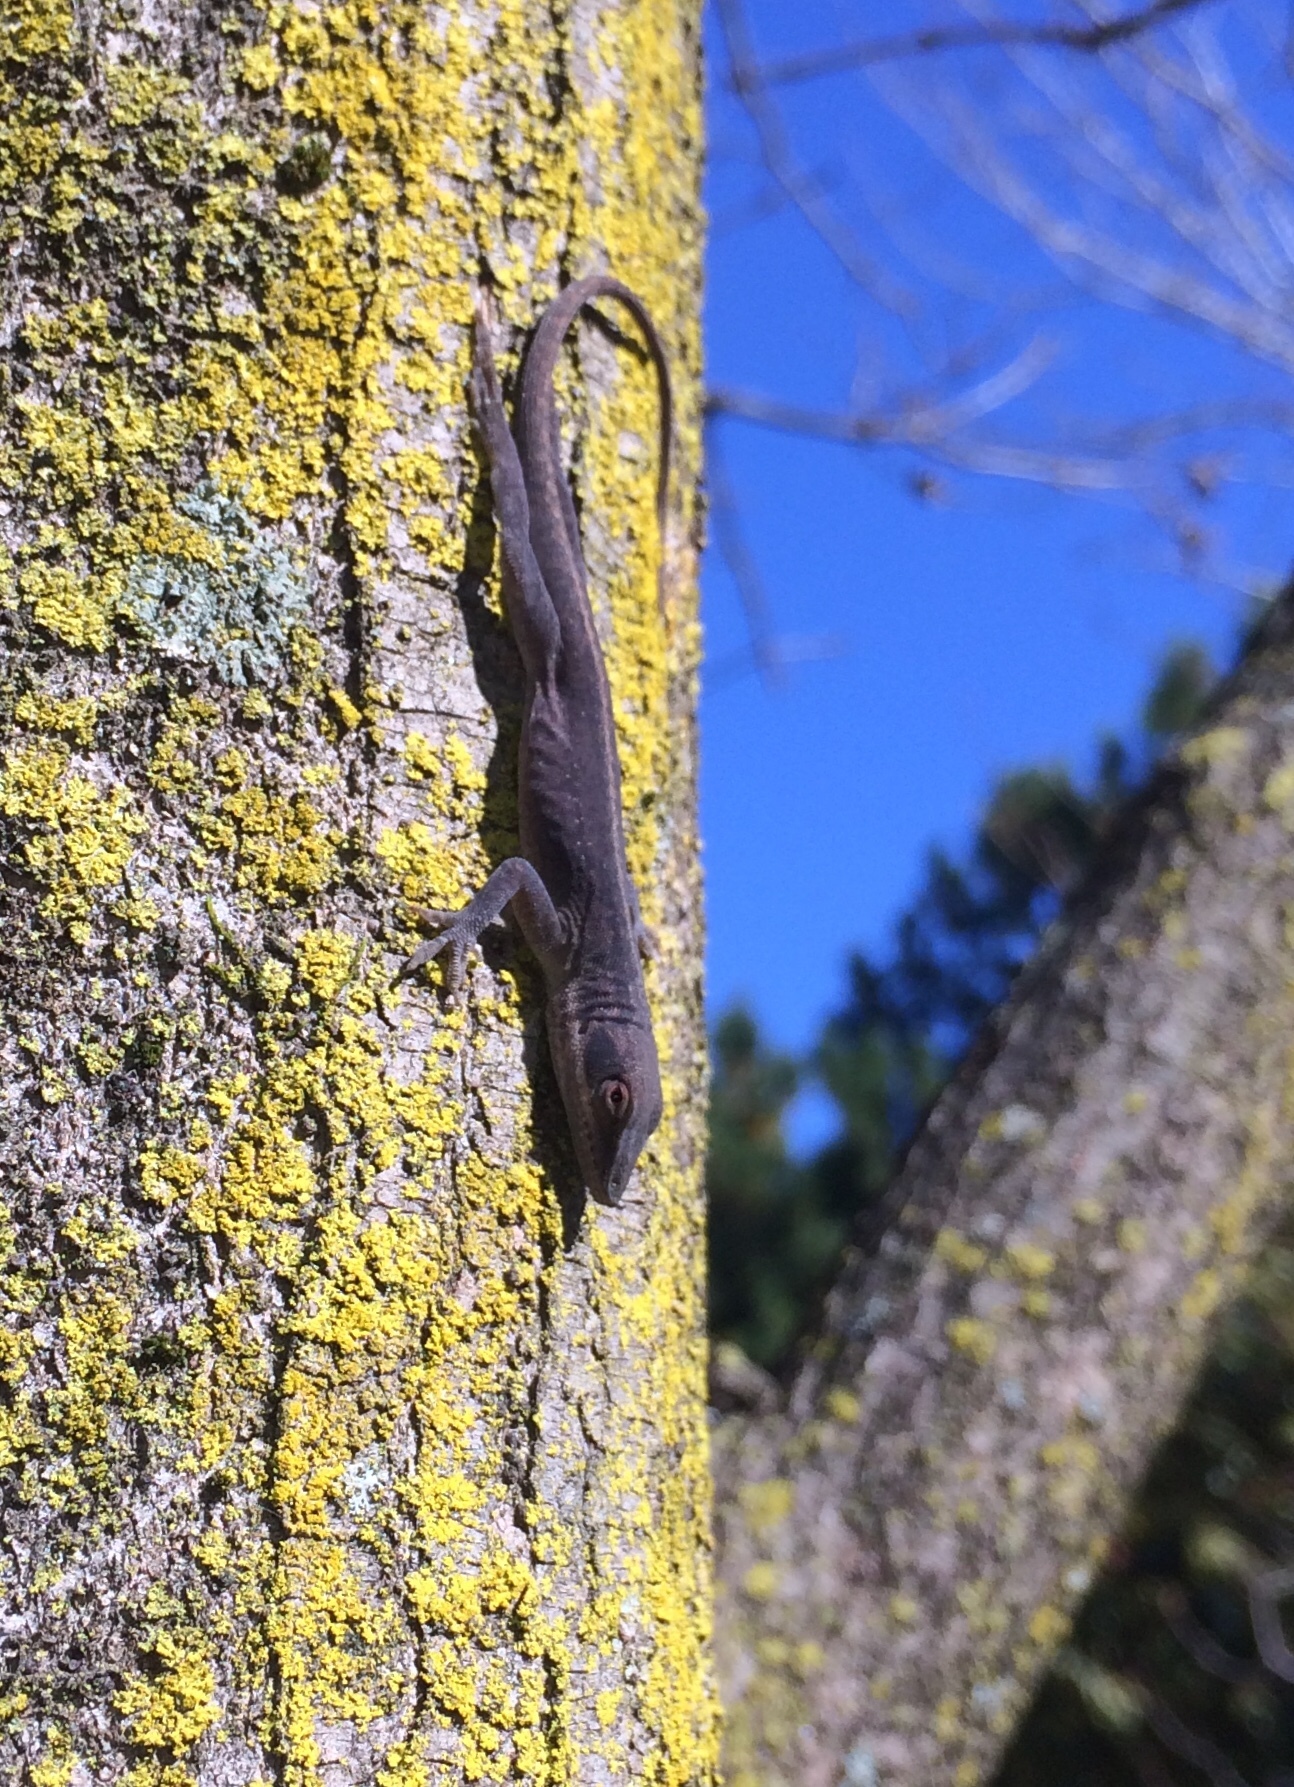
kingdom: Animalia
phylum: Chordata
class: Squamata
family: Dactyloidae
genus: Anolis
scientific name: Anolis carolinensis
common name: Green anole
